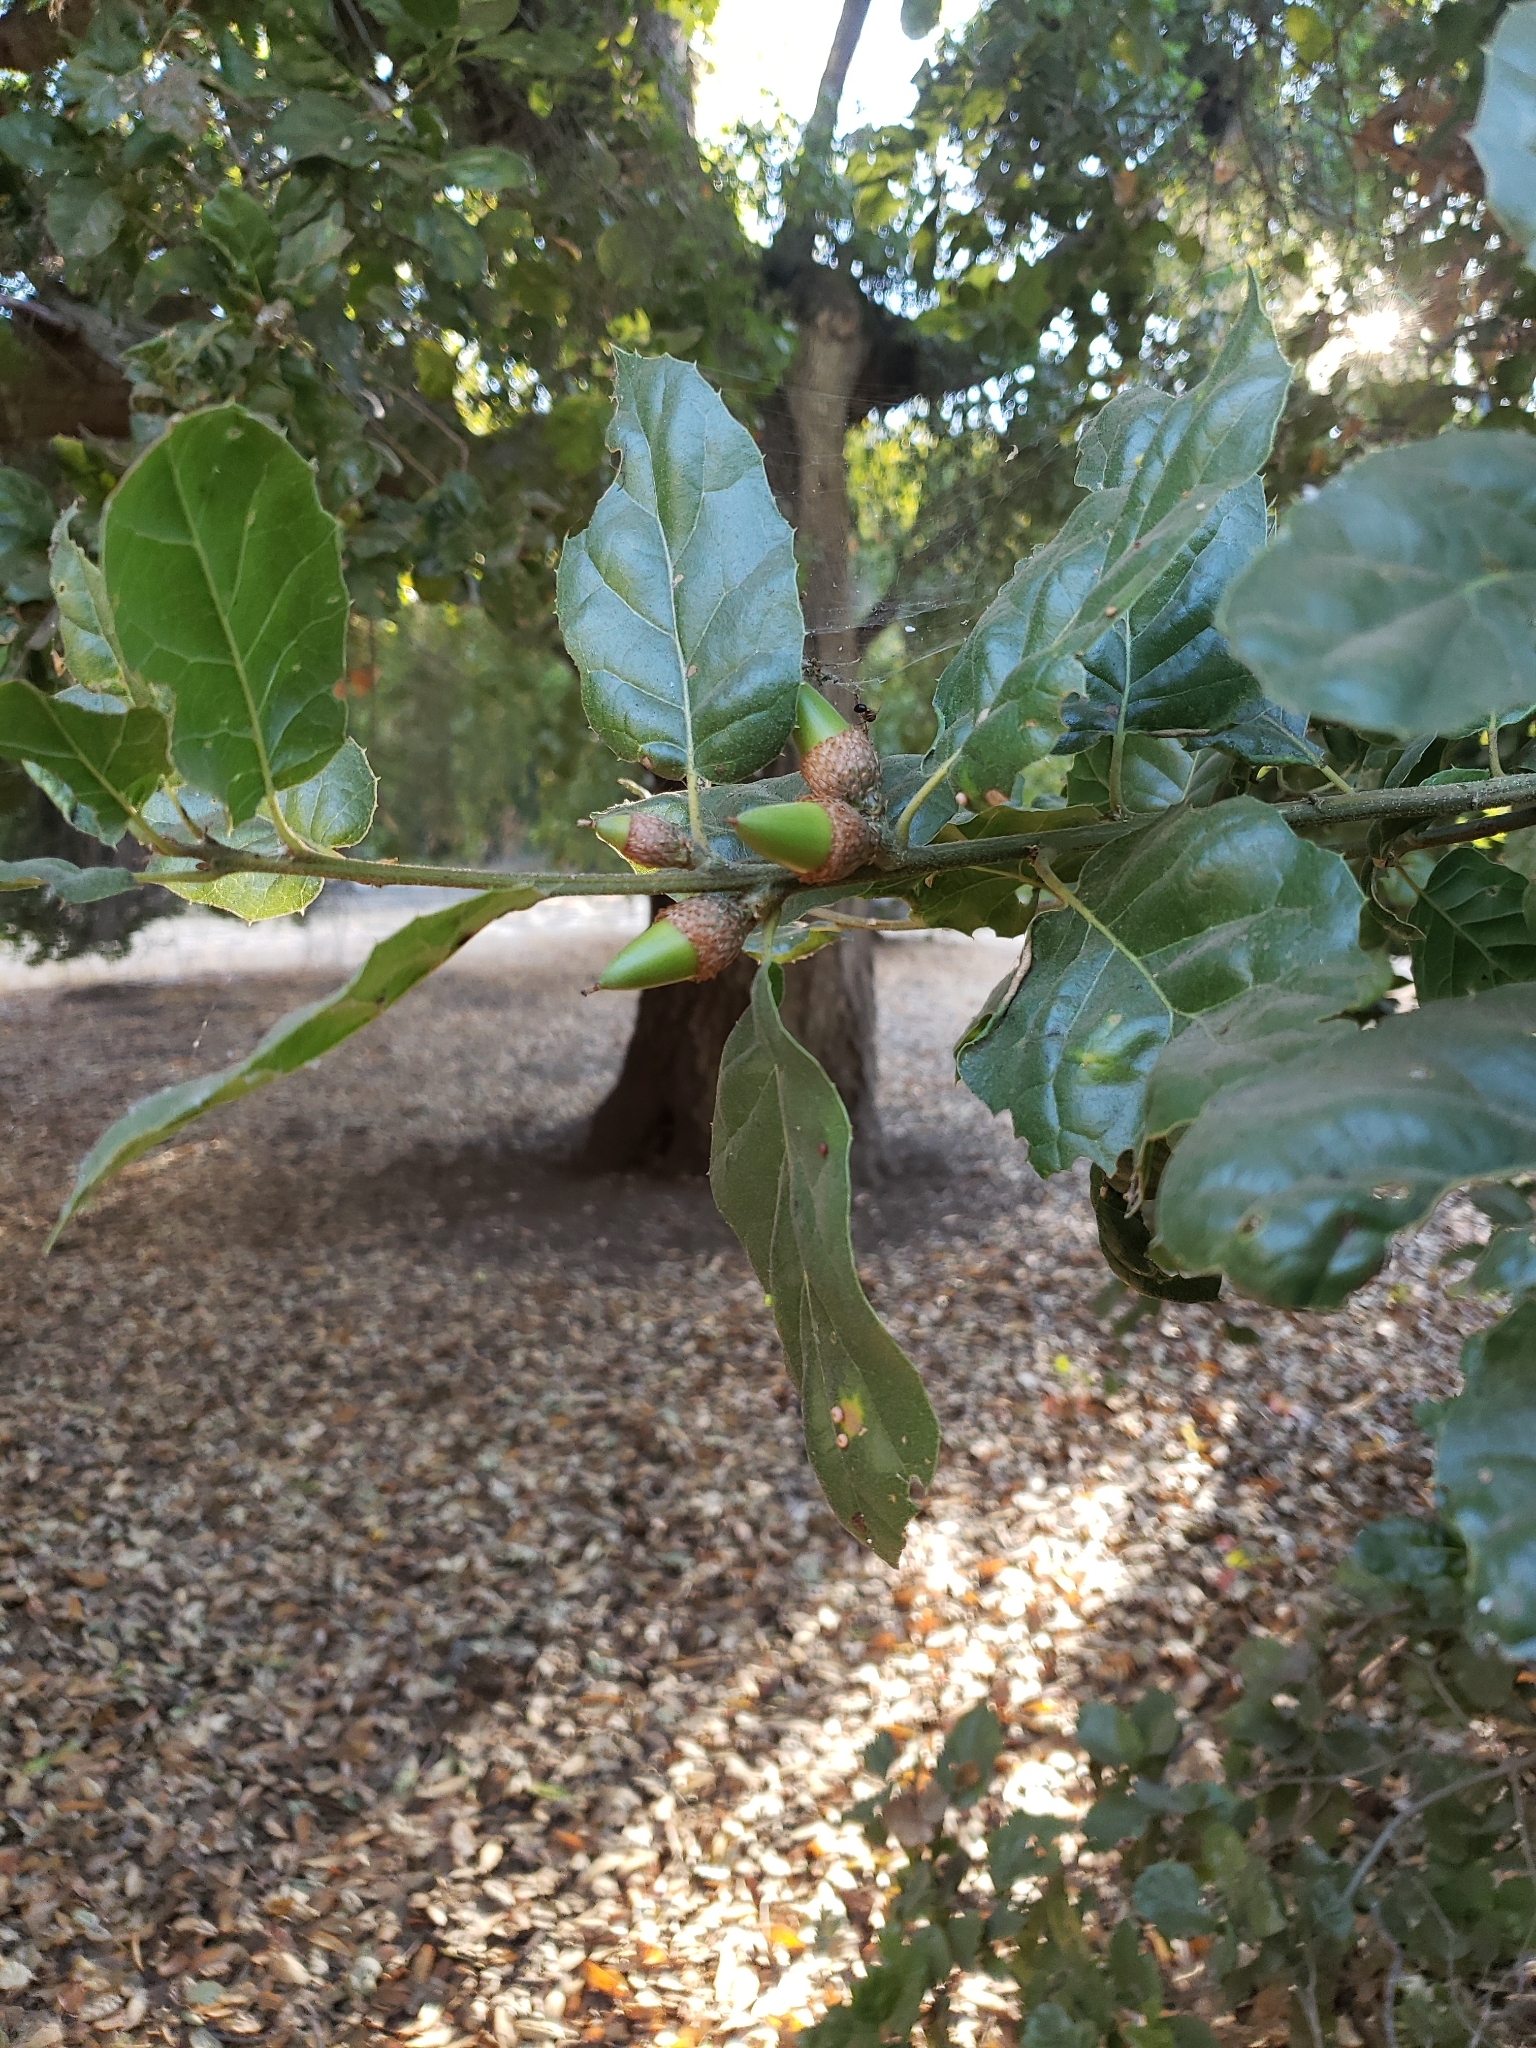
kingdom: Plantae
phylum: Tracheophyta
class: Magnoliopsida
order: Fagales
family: Fagaceae
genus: Quercus
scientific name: Quercus agrifolia
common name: California live oak
